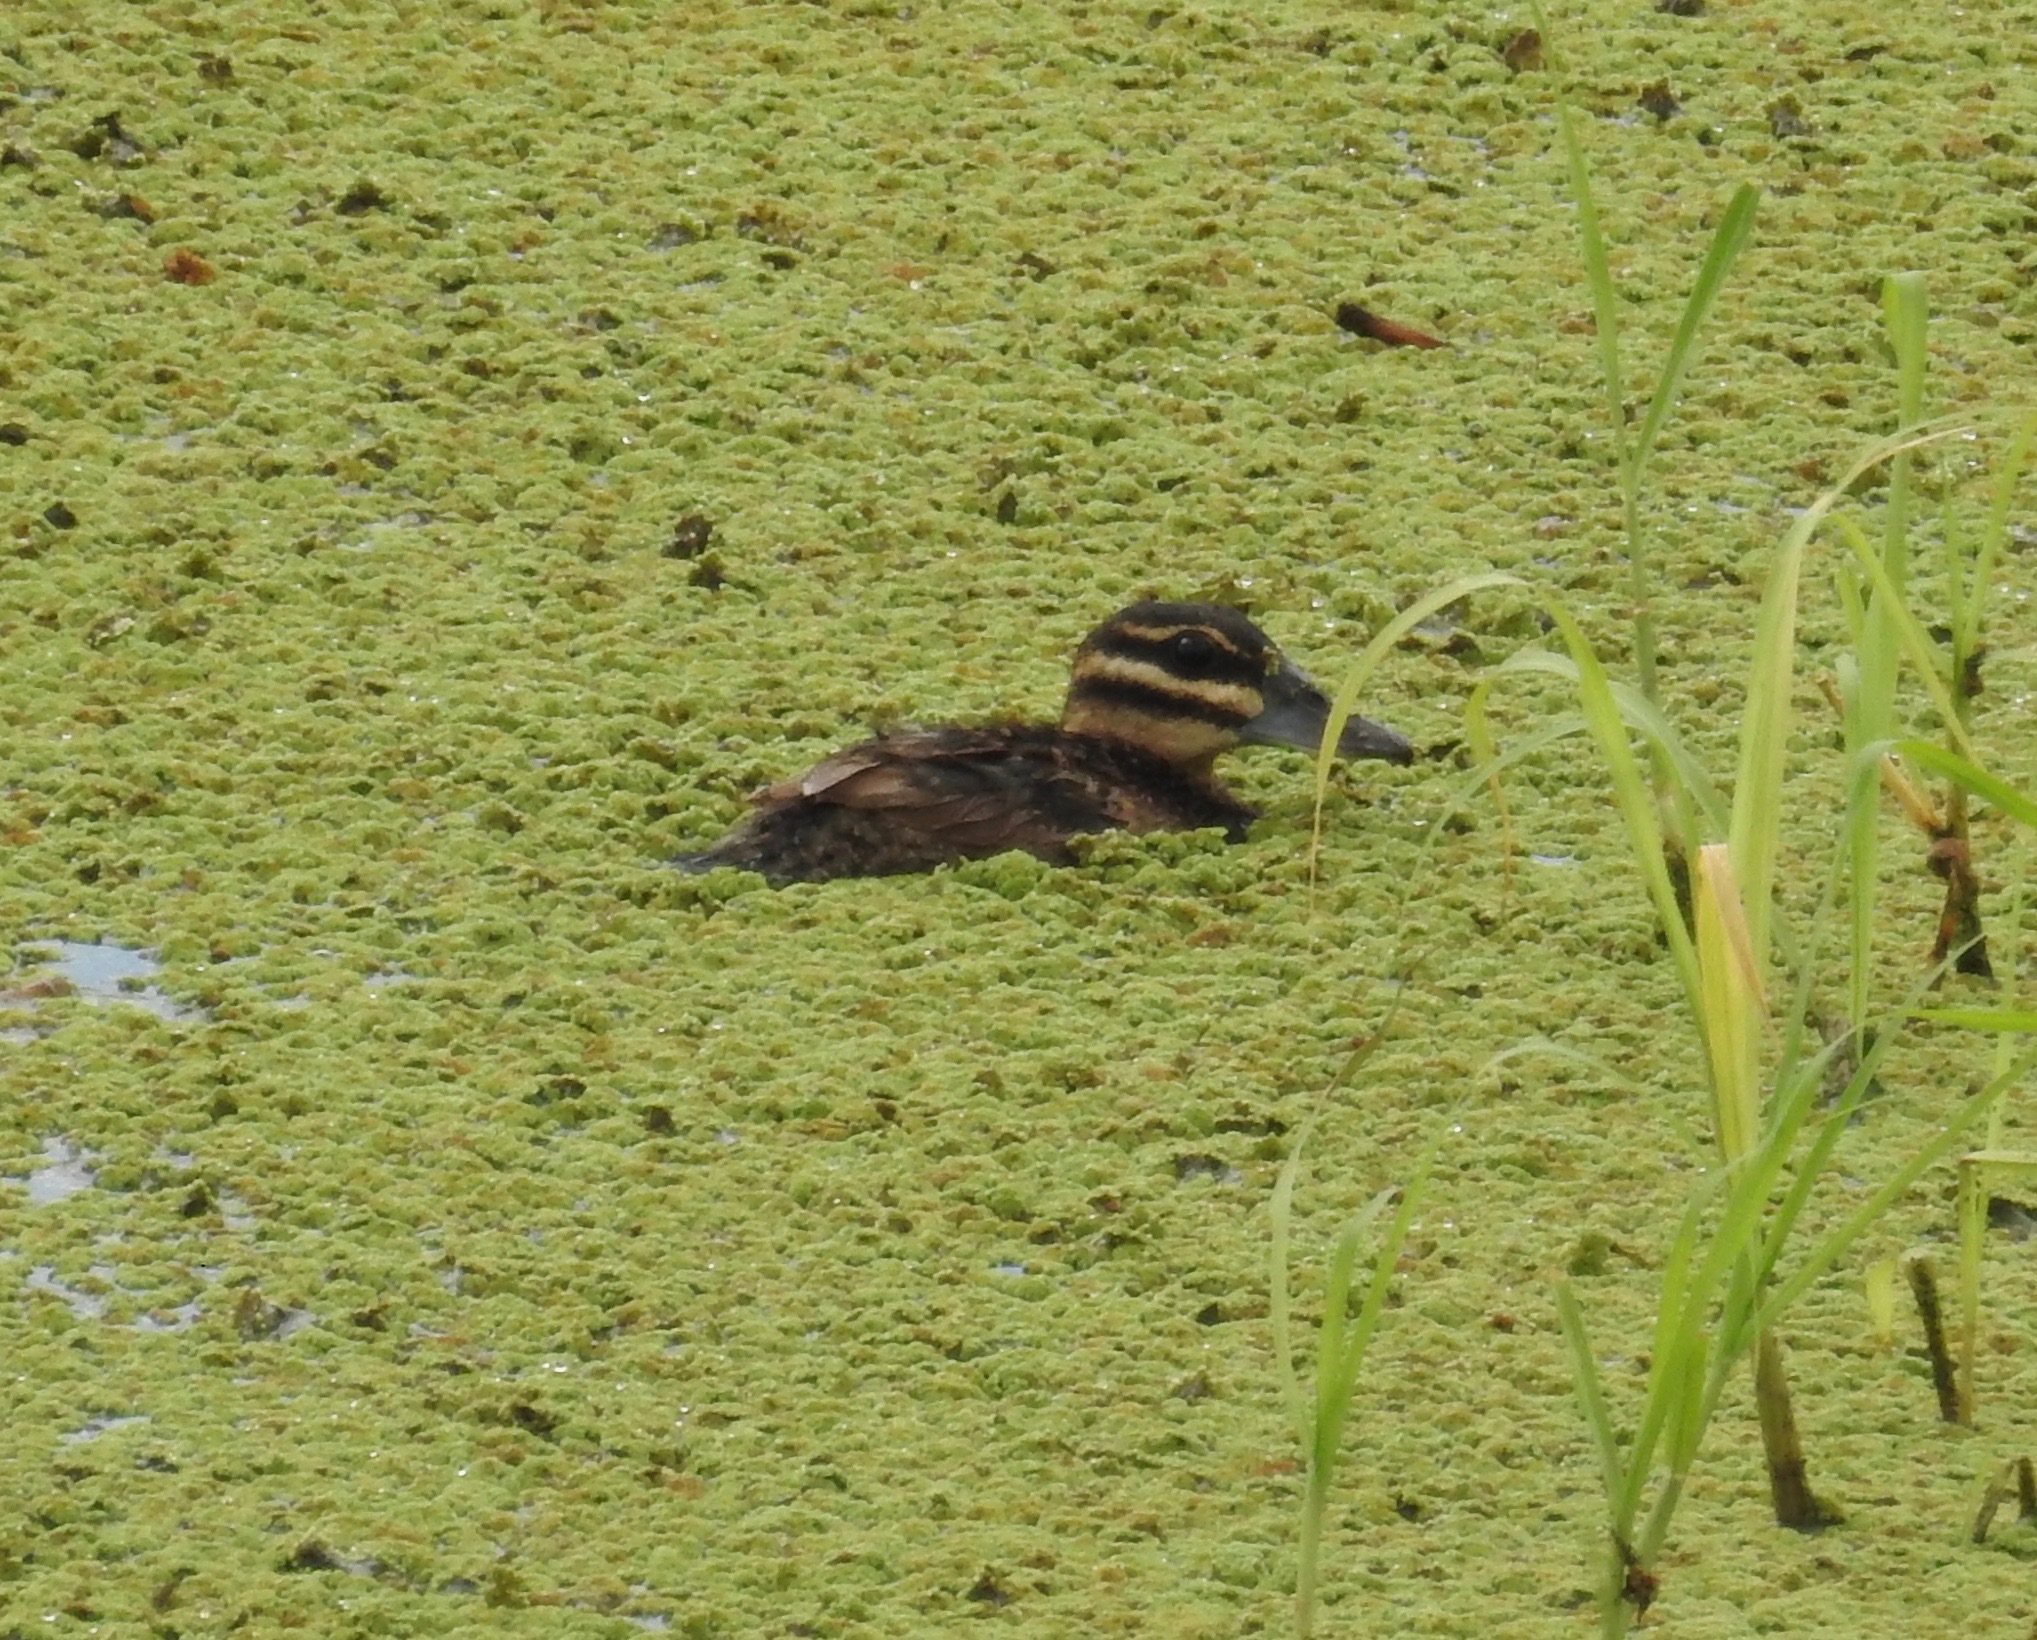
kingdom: Animalia
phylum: Chordata
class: Aves
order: Anseriformes
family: Anatidae
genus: Nomonyx
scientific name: Nomonyx dominicus
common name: Masked duck
